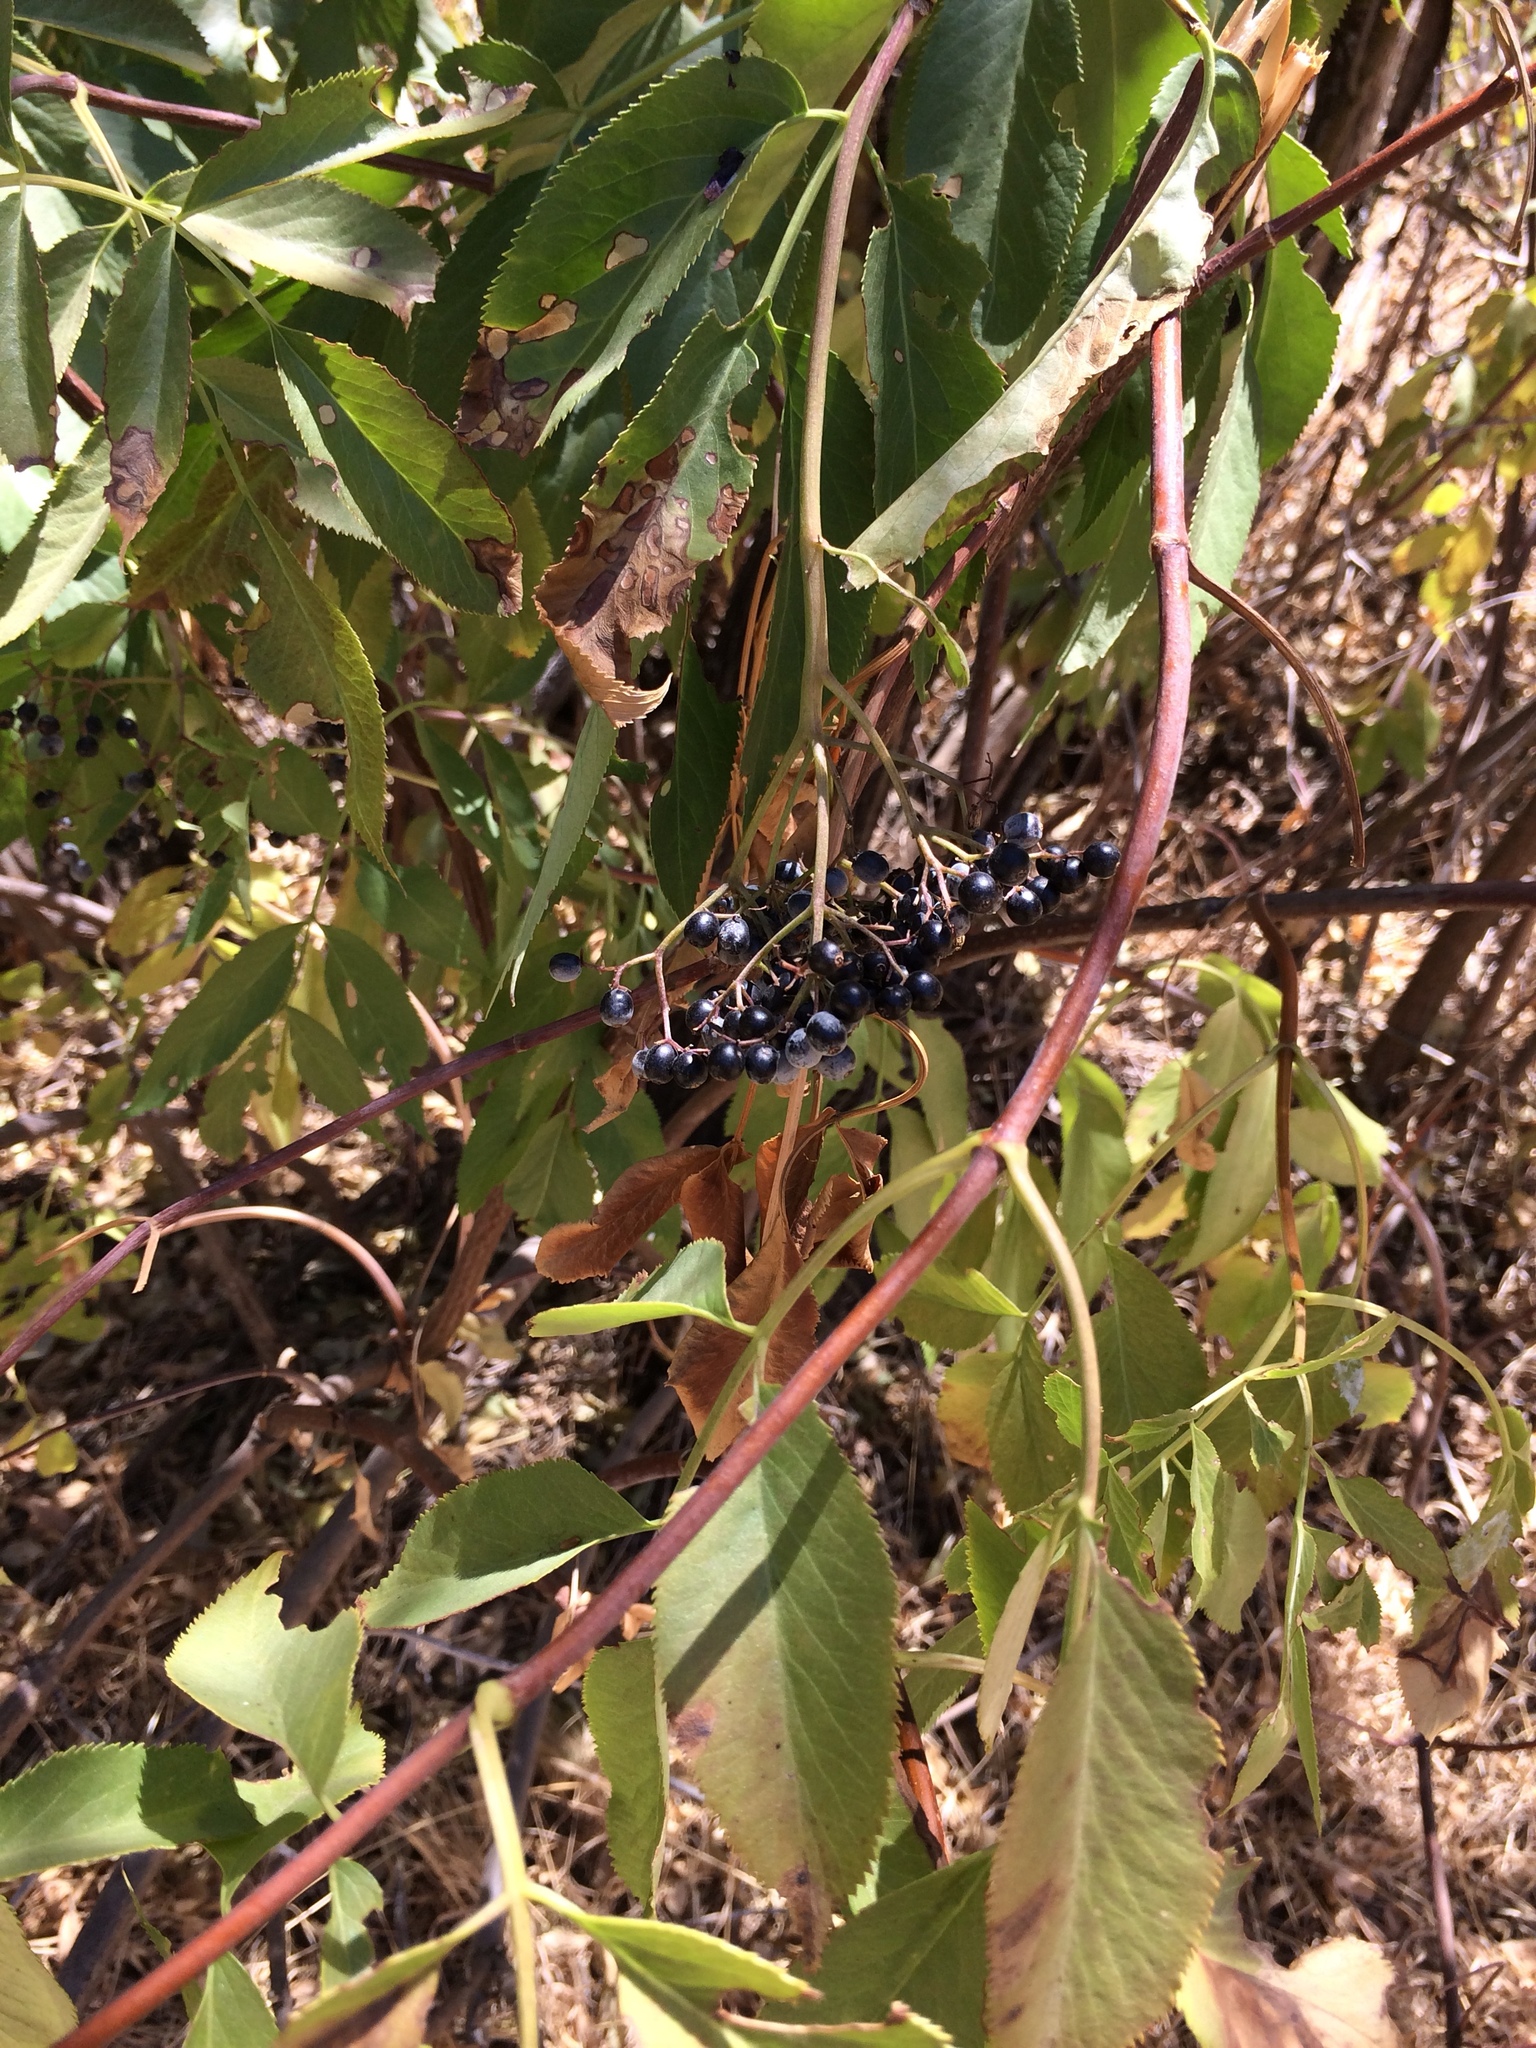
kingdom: Plantae
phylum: Tracheophyta
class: Magnoliopsida
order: Dipsacales
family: Viburnaceae
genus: Sambucus
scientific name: Sambucus cerulea
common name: Blue elder
